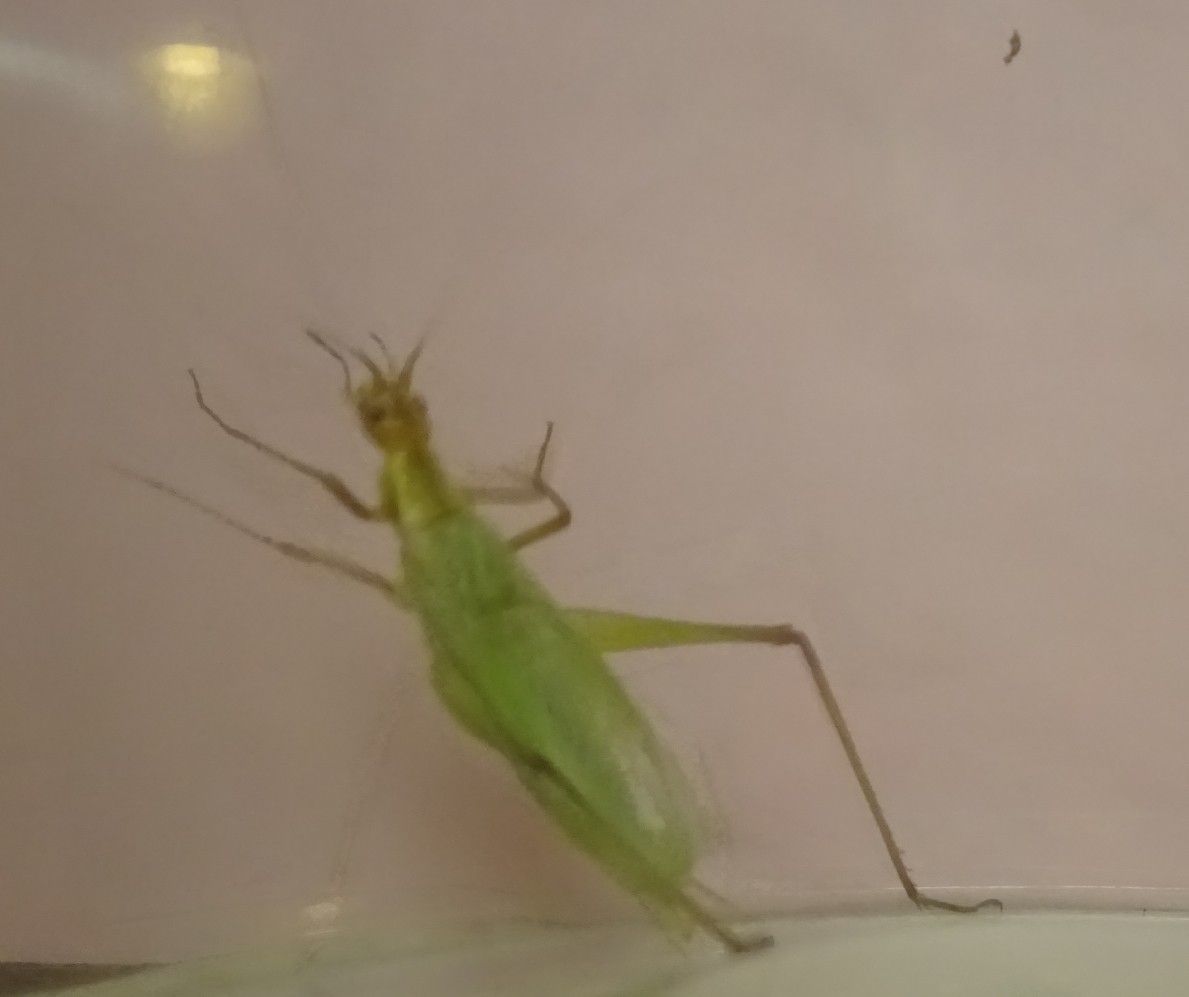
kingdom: Animalia
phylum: Arthropoda
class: Insecta
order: Orthoptera
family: Gryllidae
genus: Oecanthus
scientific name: Oecanthus forbesi
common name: Forbes’s tree cricket
